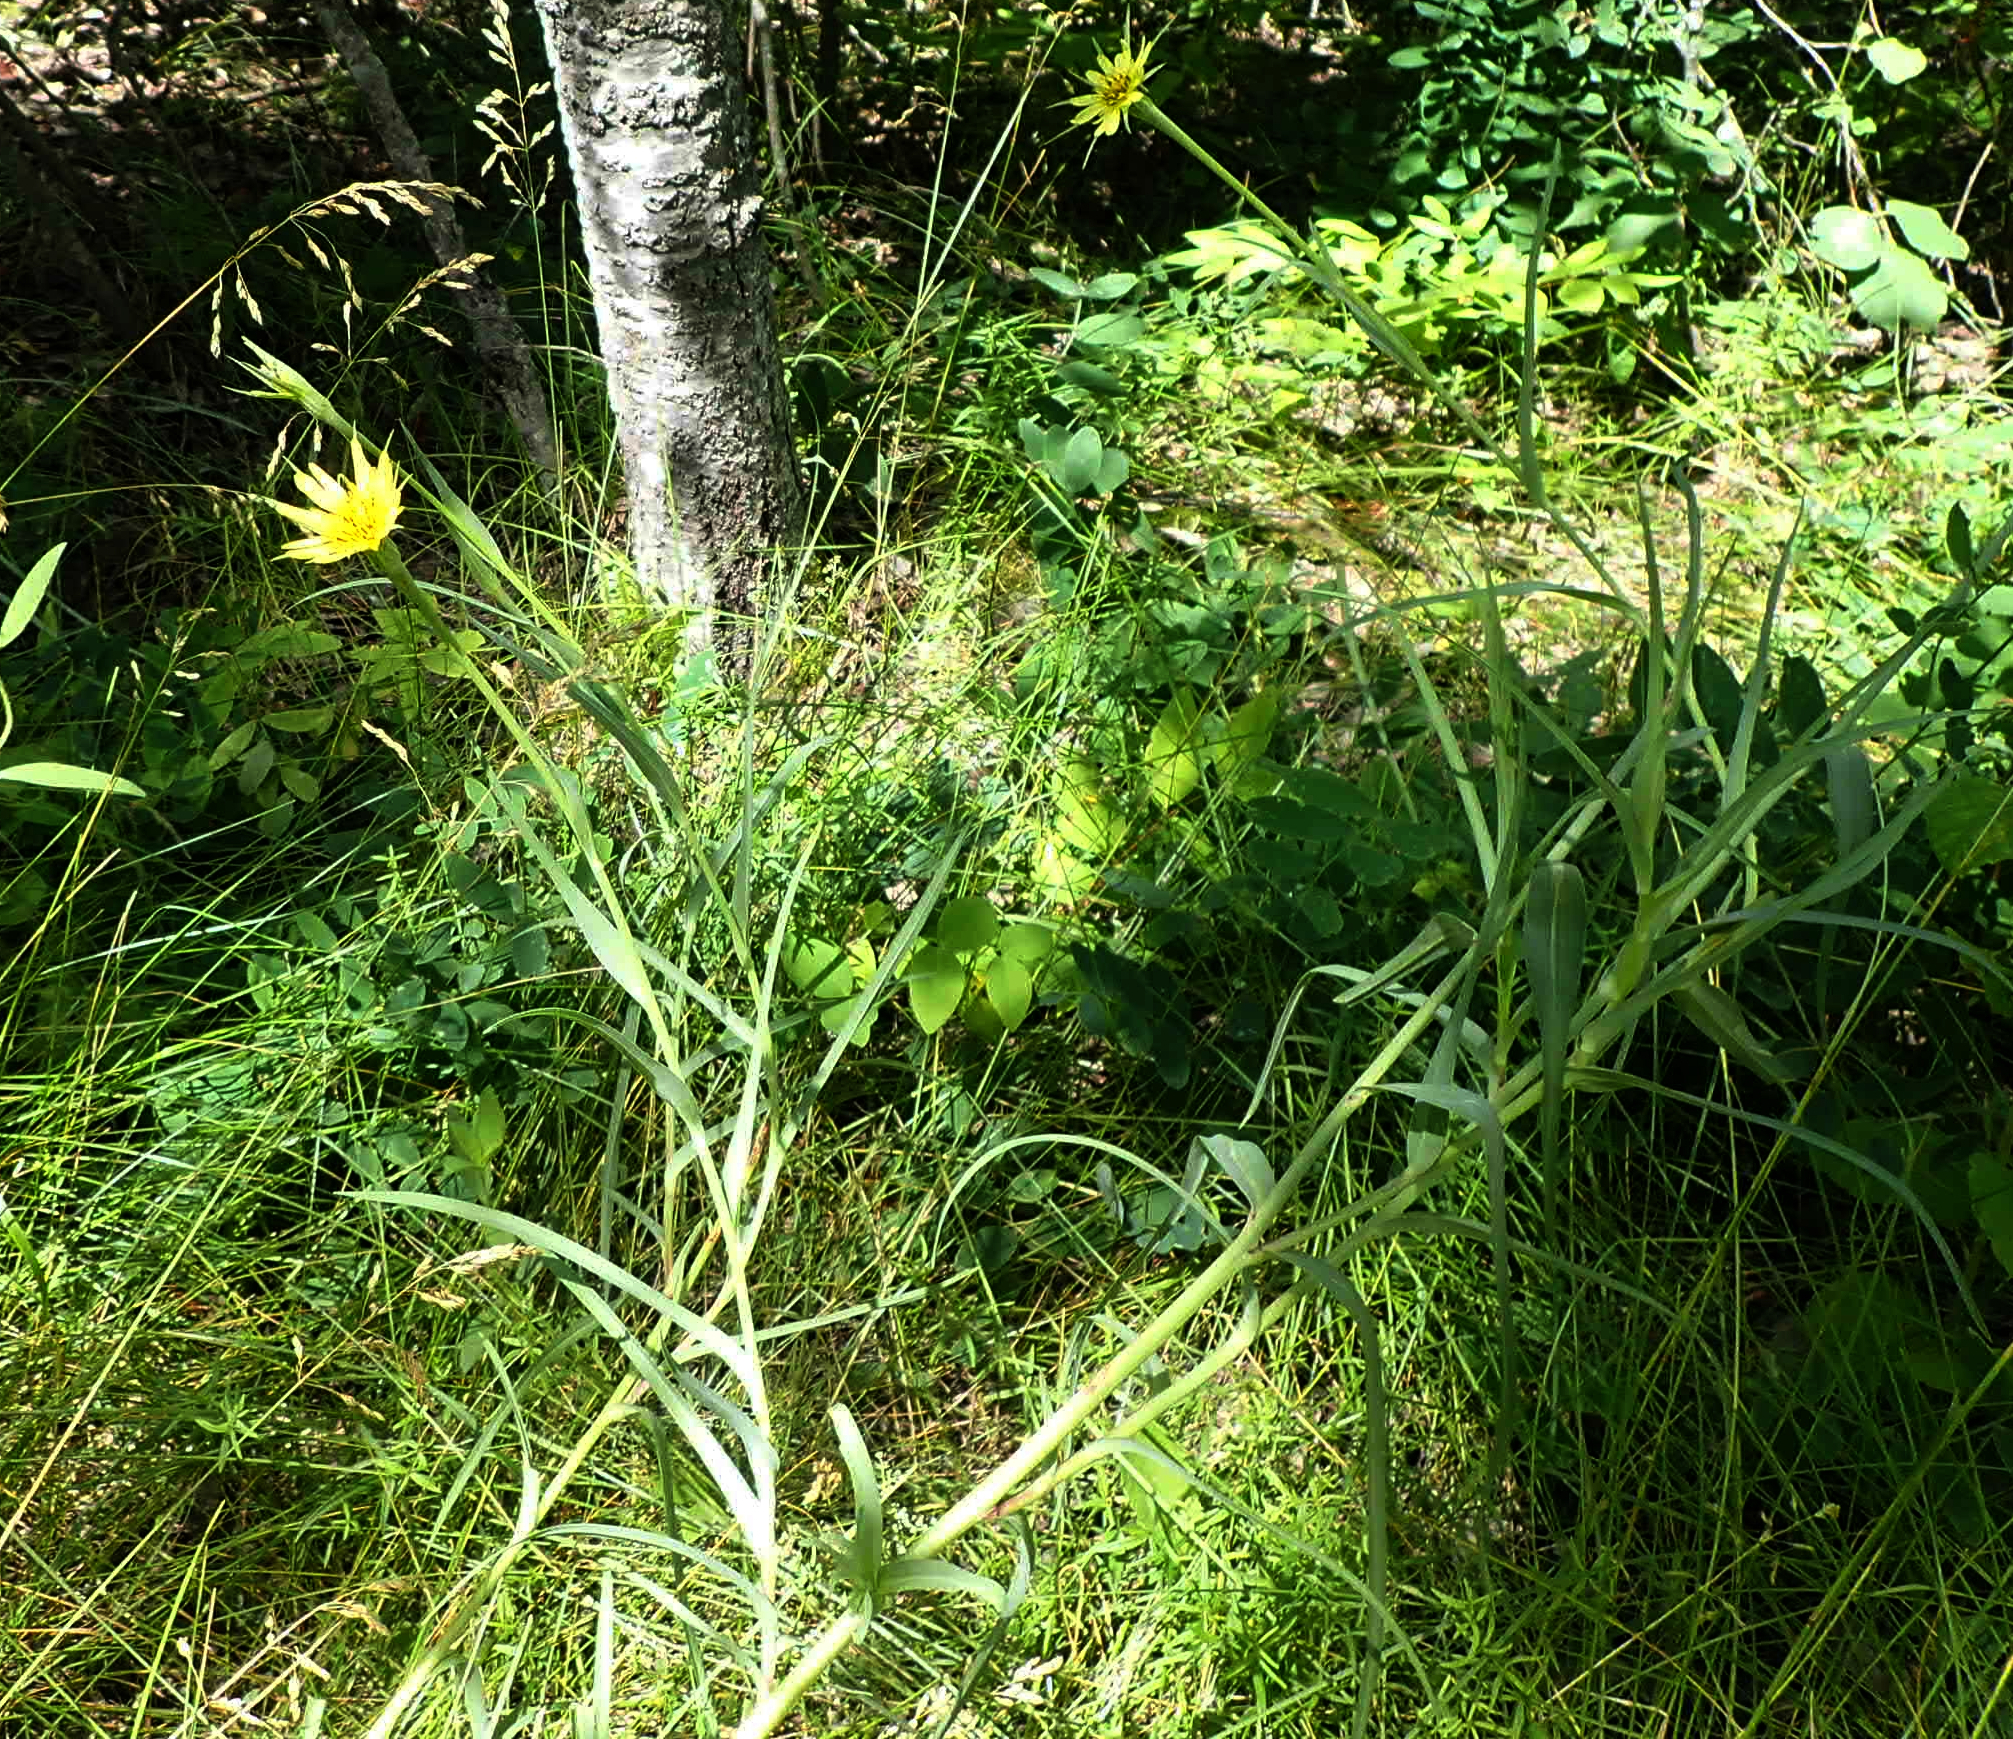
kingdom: Plantae
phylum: Tracheophyta
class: Magnoliopsida
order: Asterales
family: Asteraceae
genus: Tragopogon
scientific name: Tragopogon dubius
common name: Yellow salsify
